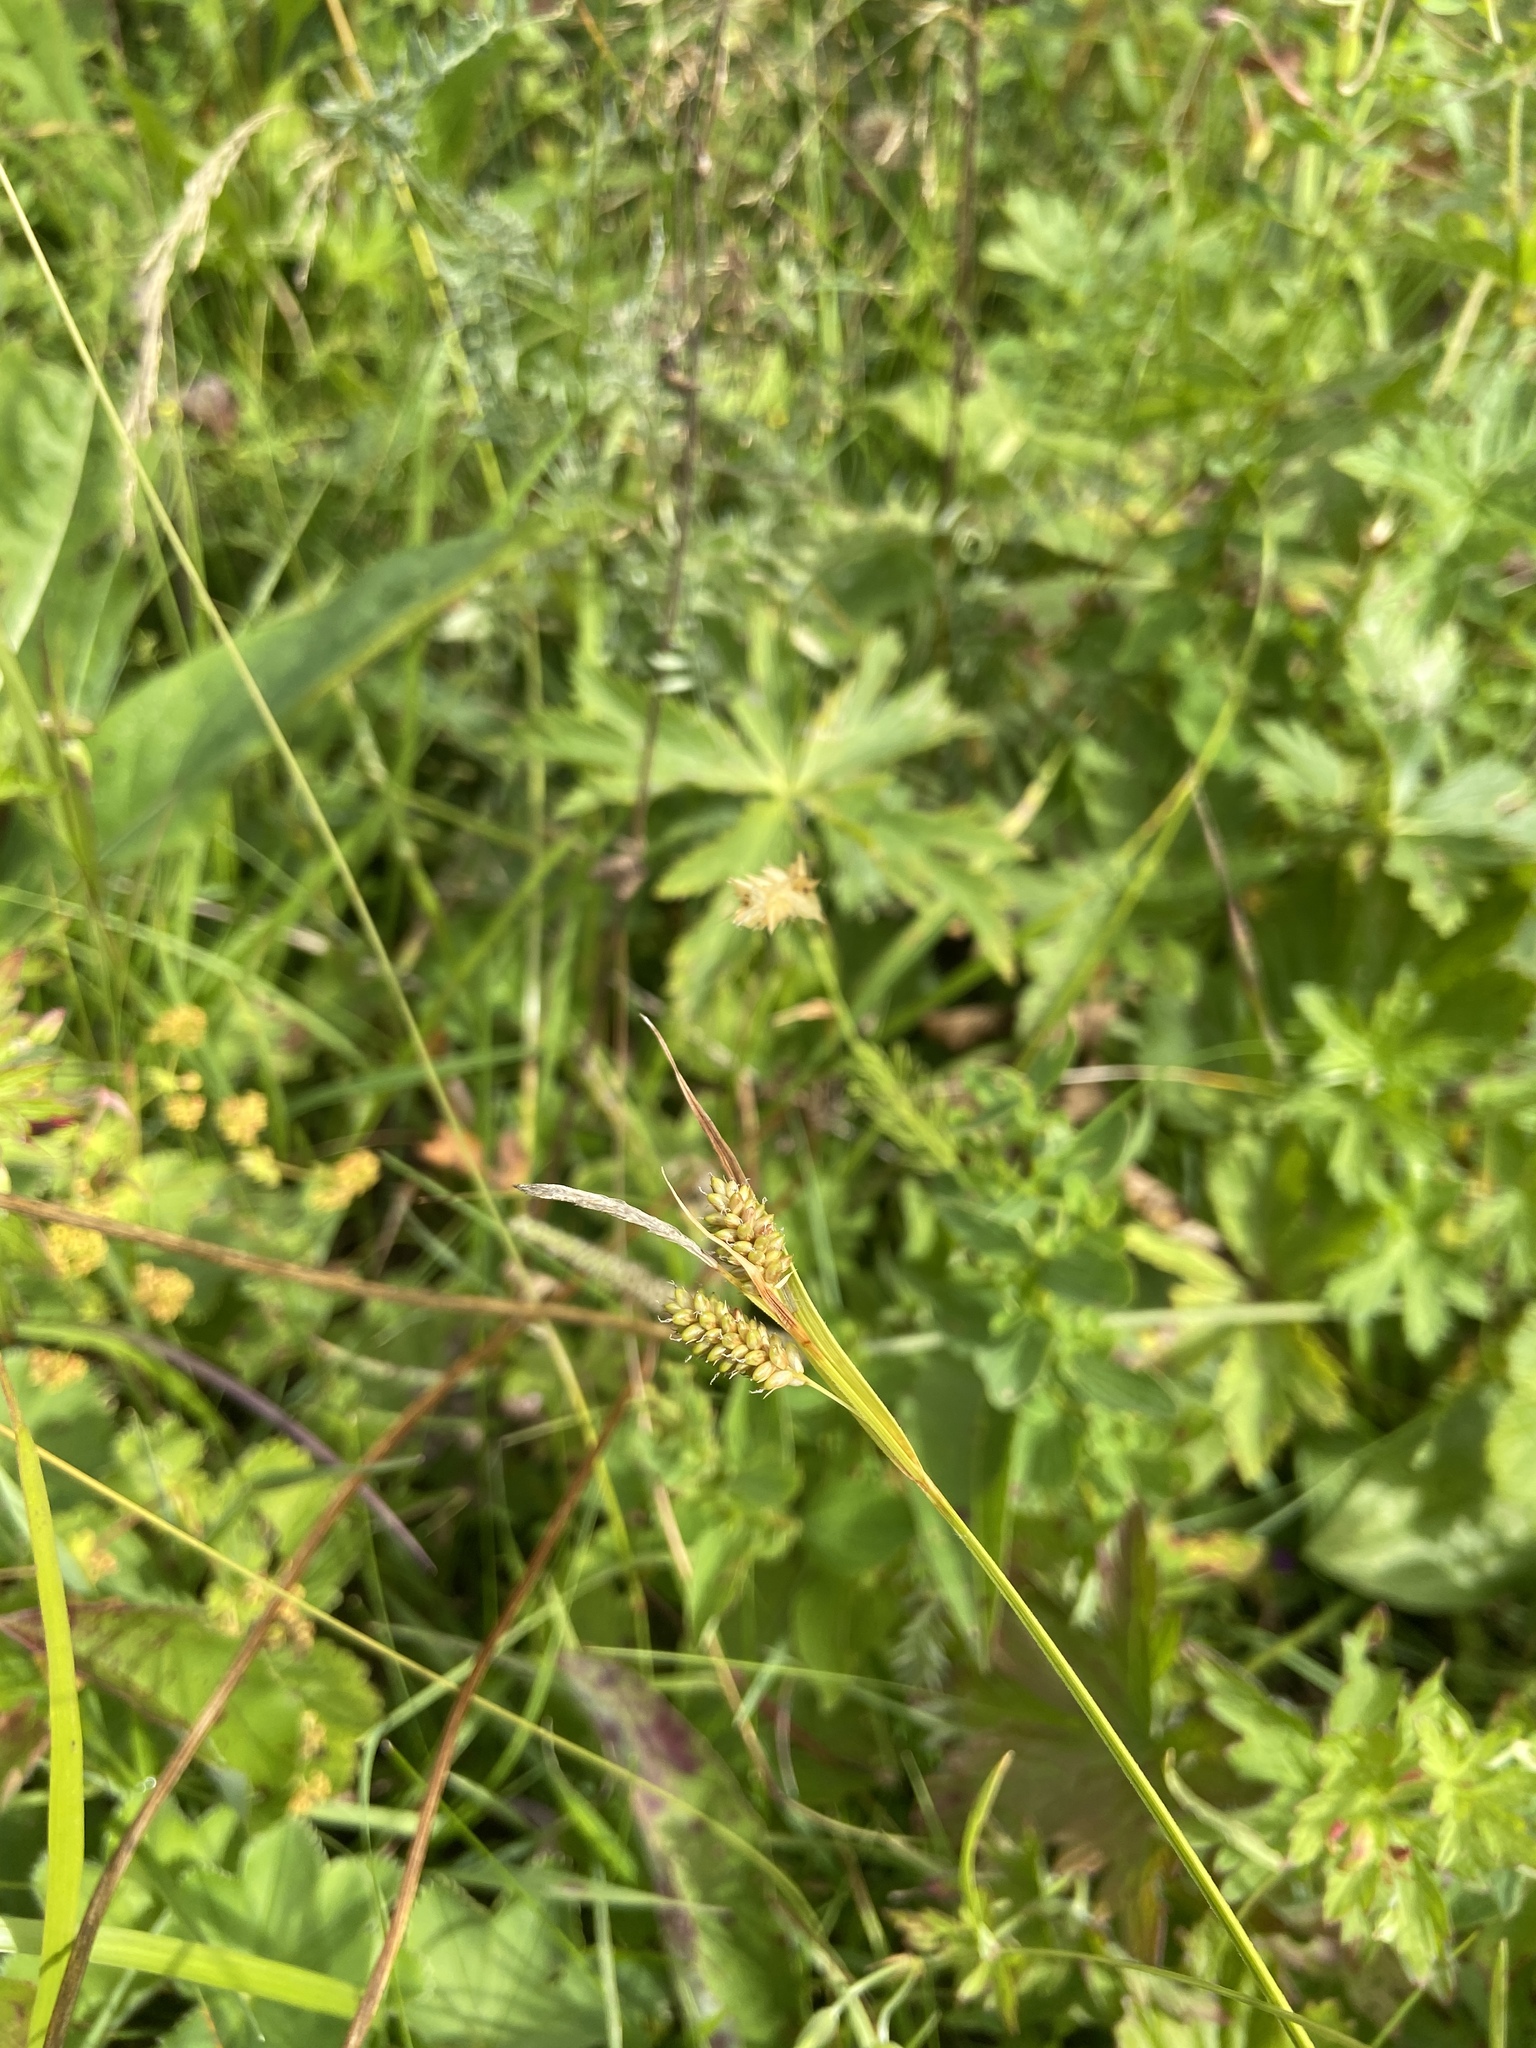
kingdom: Plantae
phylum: Tracheophyta
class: Liliopsida
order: Poales
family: Cyperaceae
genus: Carex
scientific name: Carex pallescens
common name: Pale sedge
